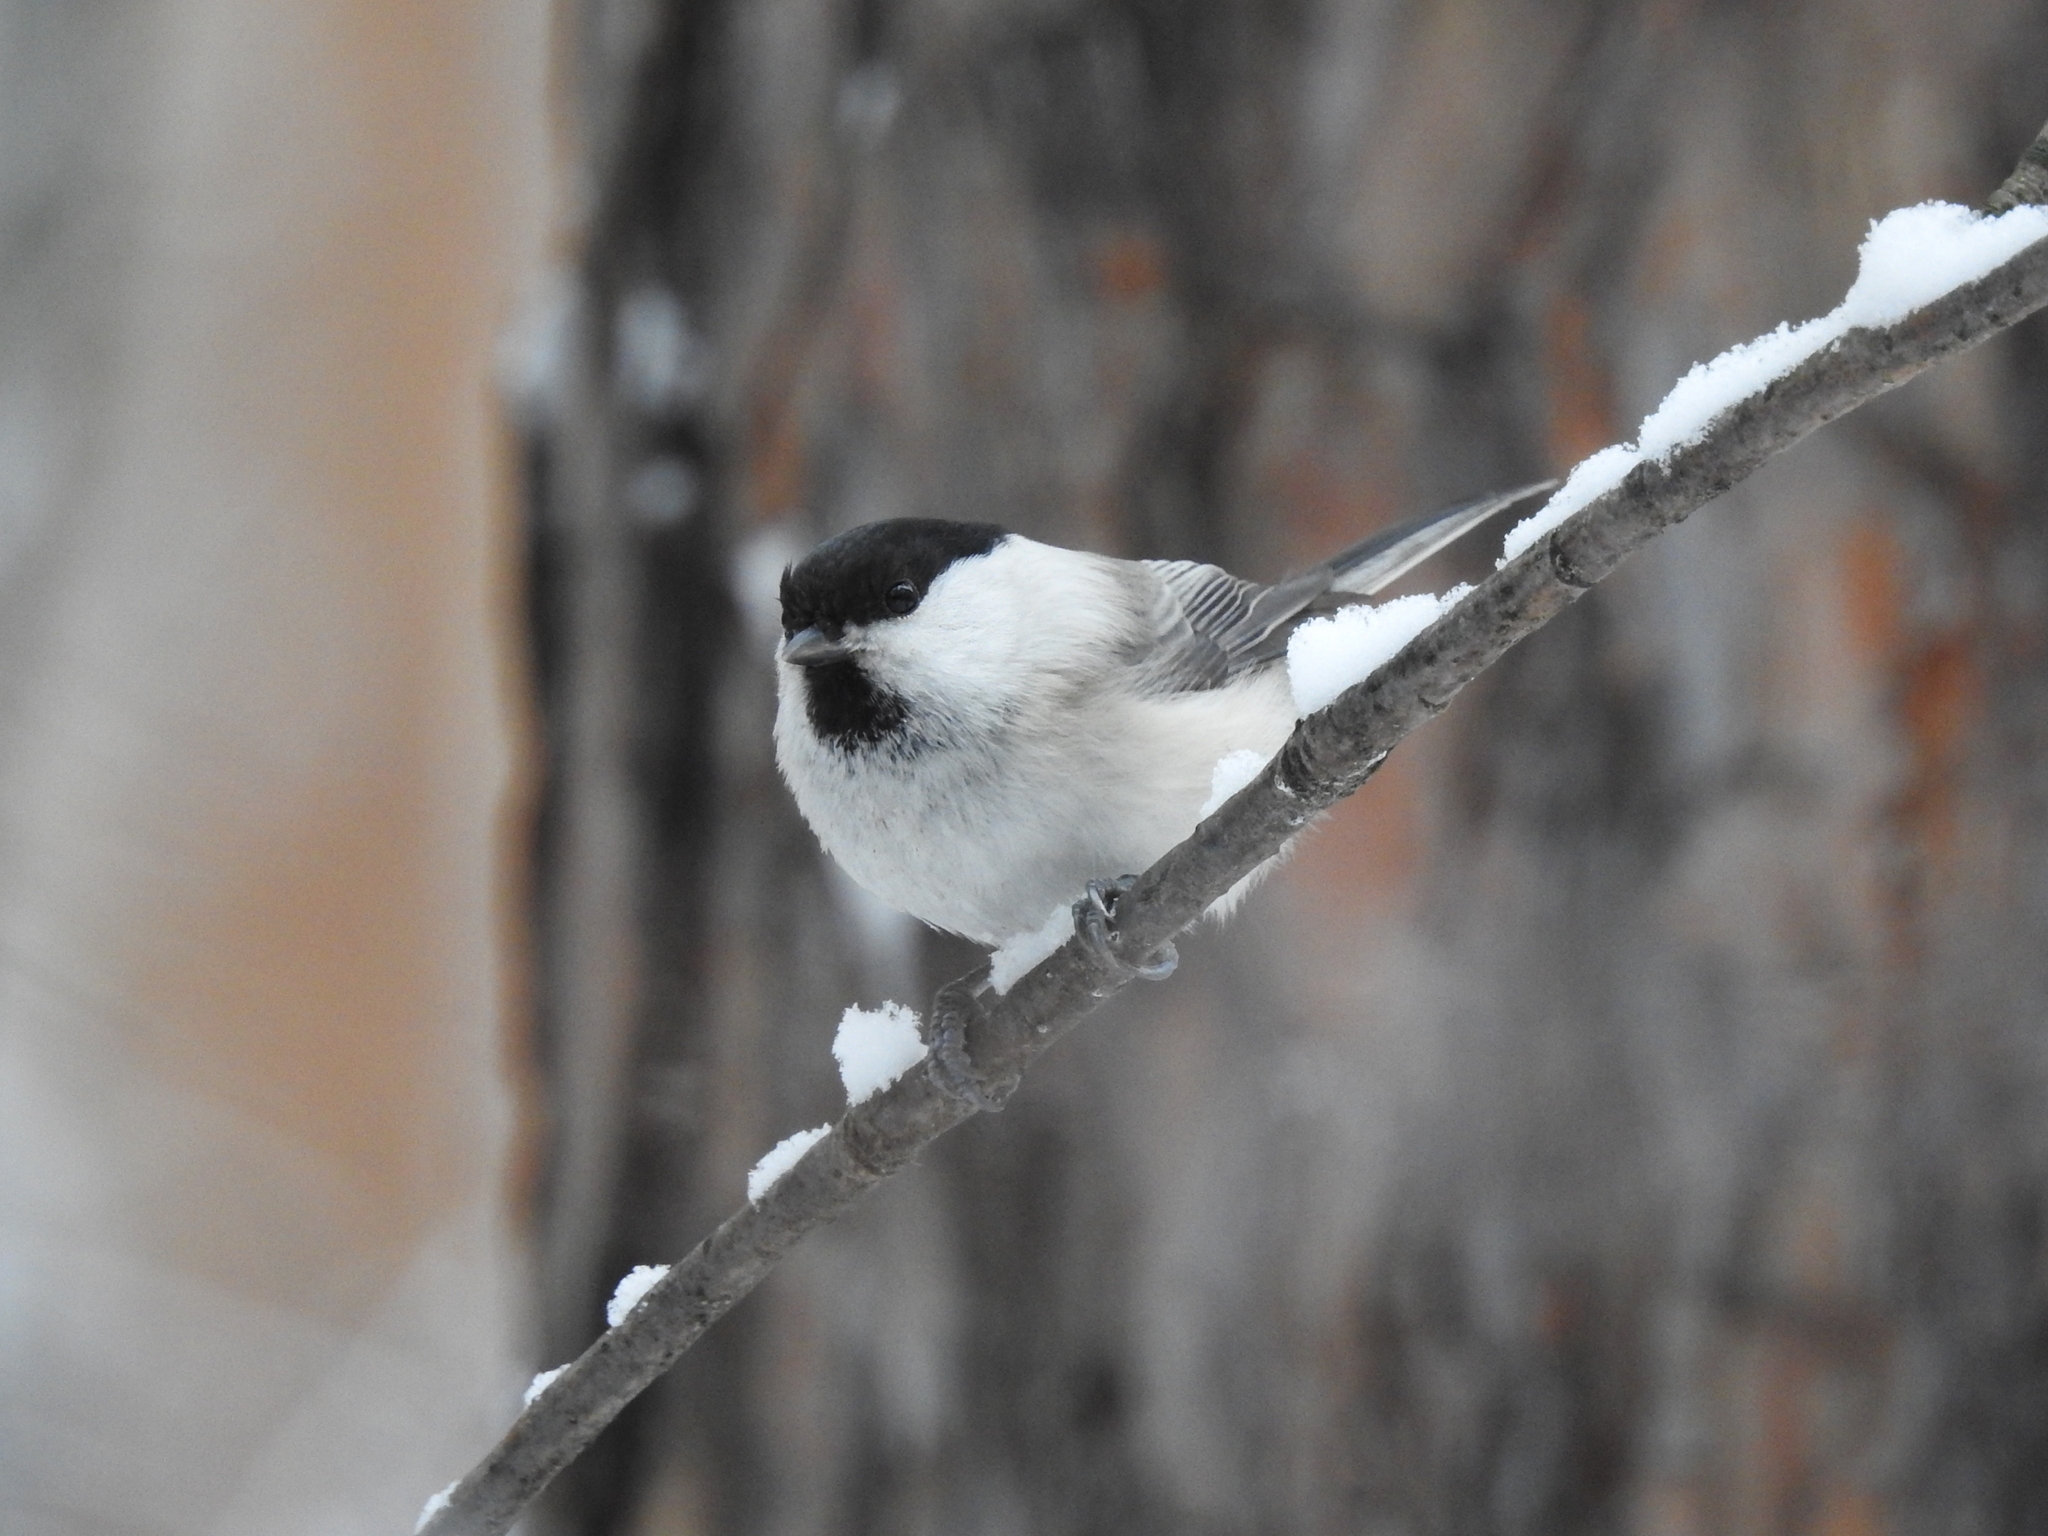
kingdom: Animalia
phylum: Chordata
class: Aves
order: Passeriformes
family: Paridae
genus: Poecile
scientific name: Poecile montanus
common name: Willow tit
